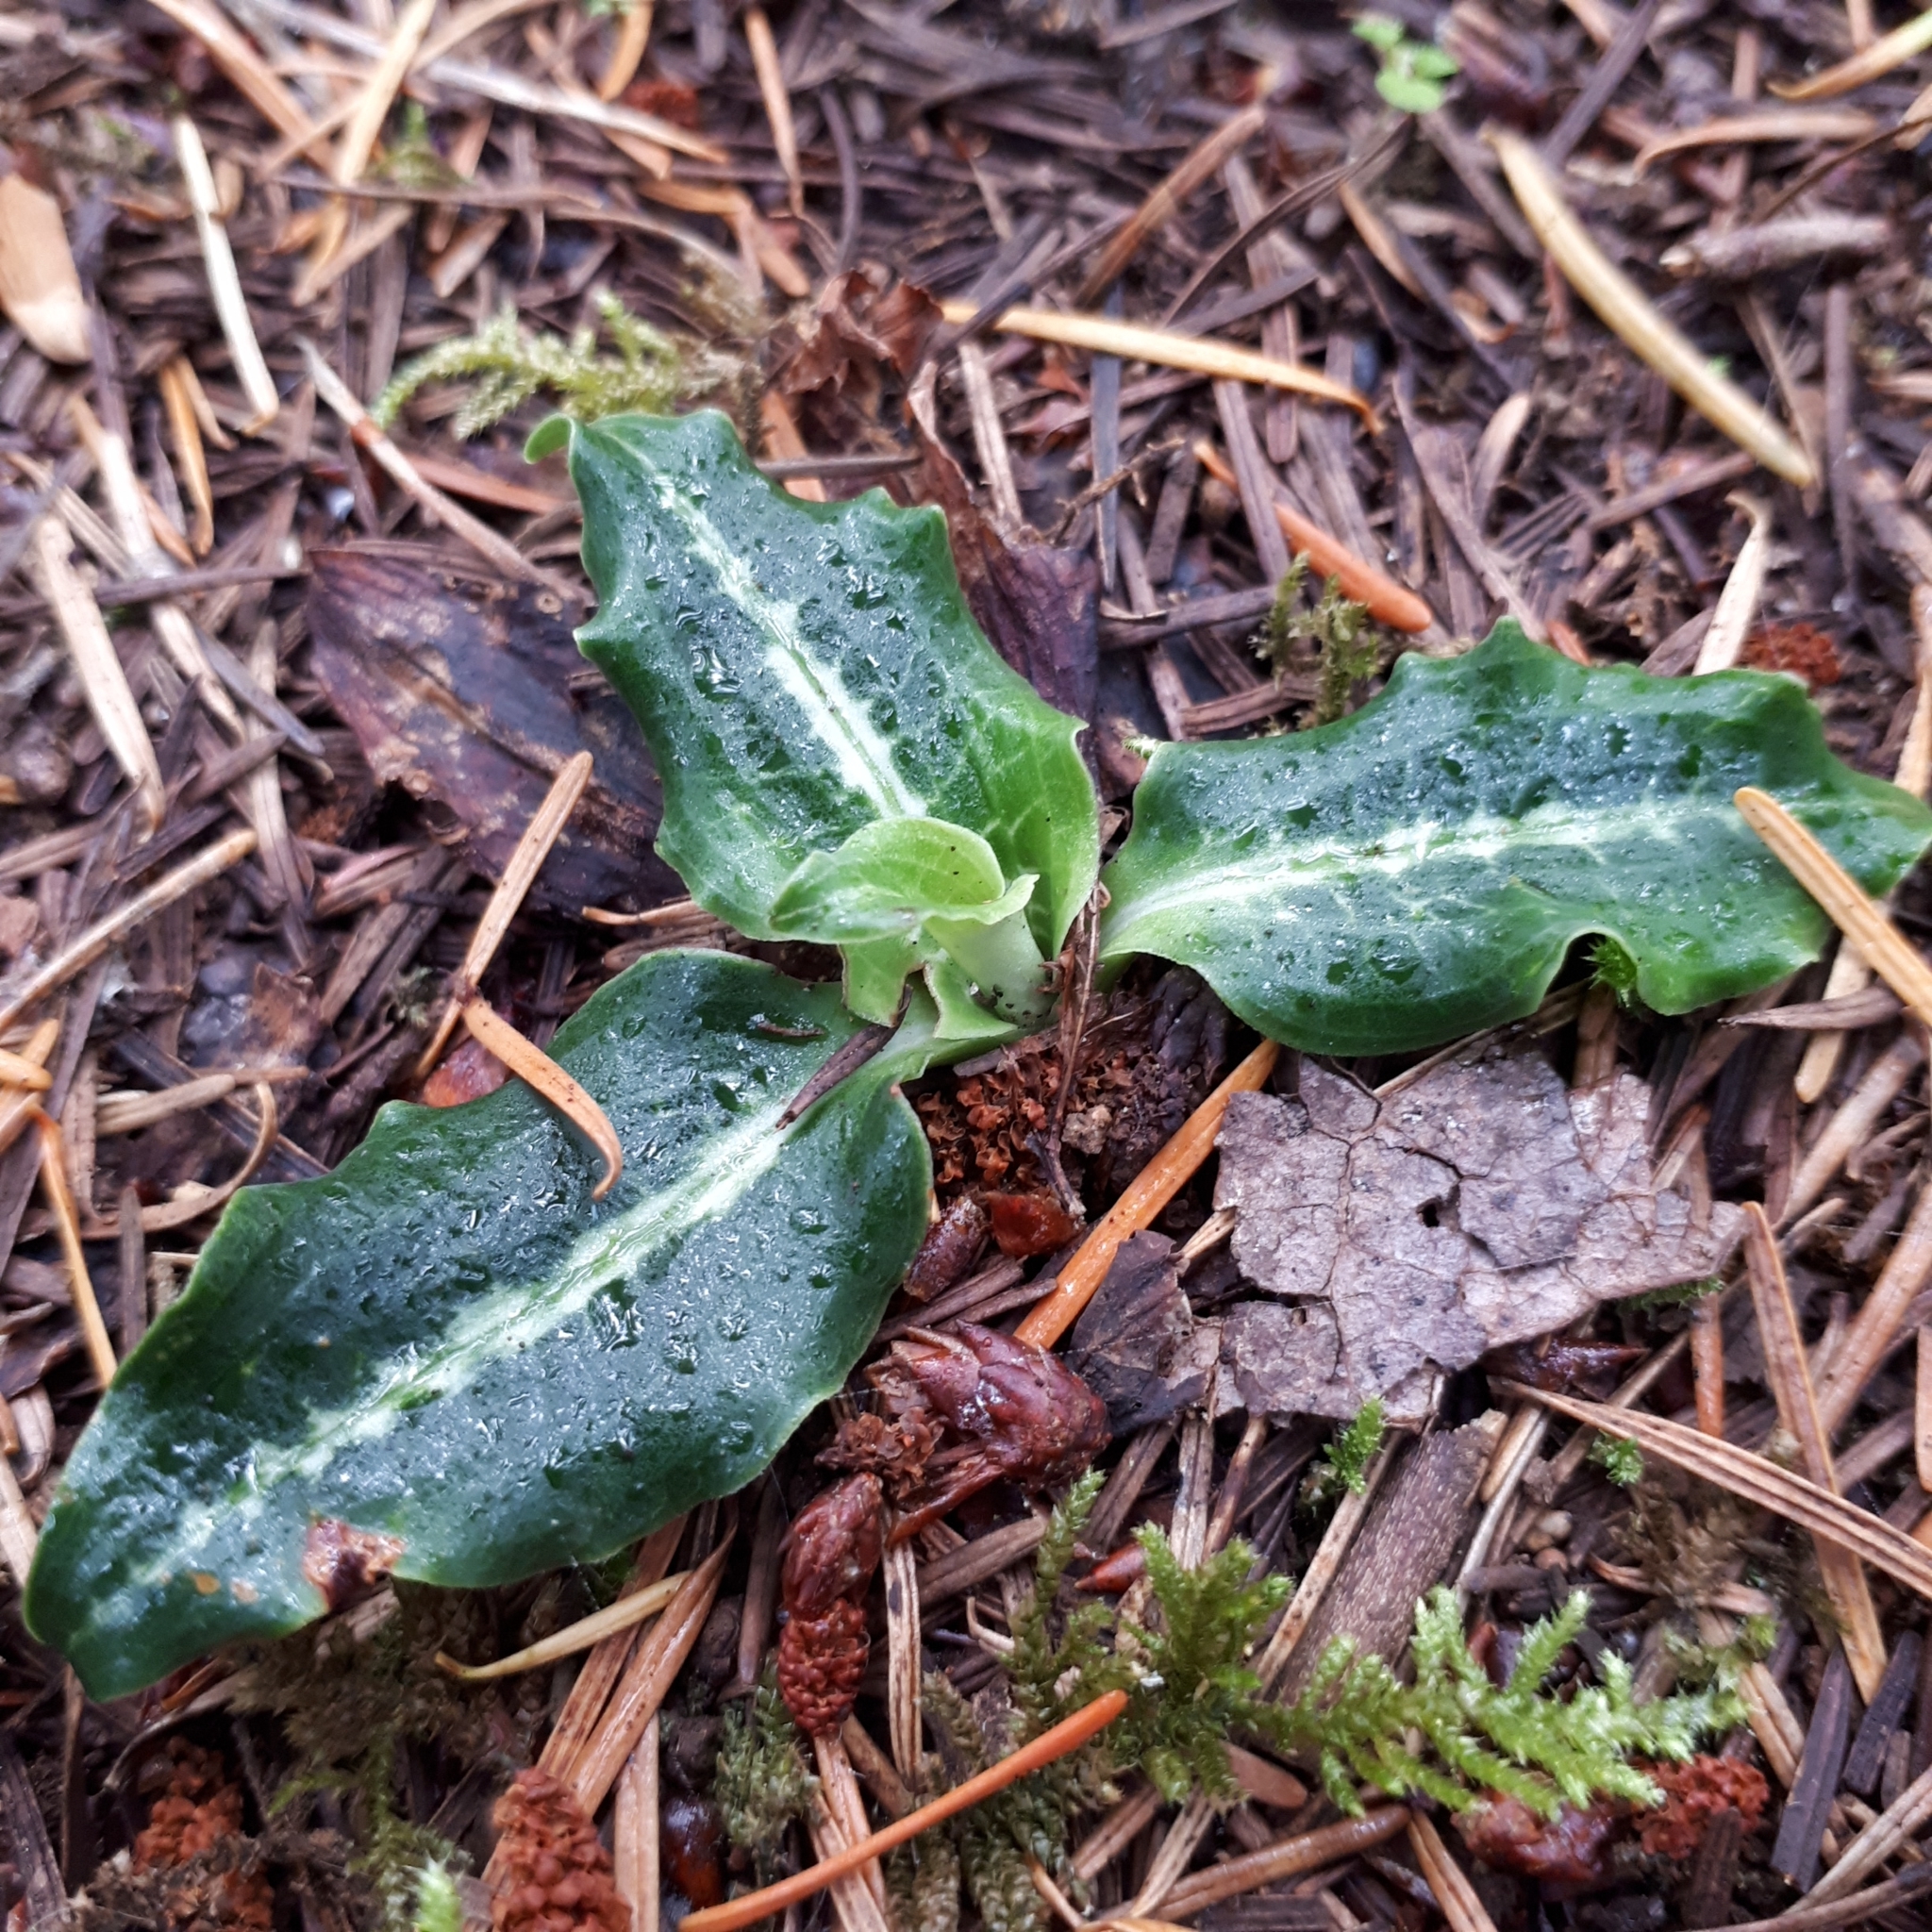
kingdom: Plantae
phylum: Tracheophyta
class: Liliopsida
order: Asparagales
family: Orchidaceae
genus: Goodyera
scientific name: Goodyera oblongifolia
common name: Giant rattlesnake-plantain
